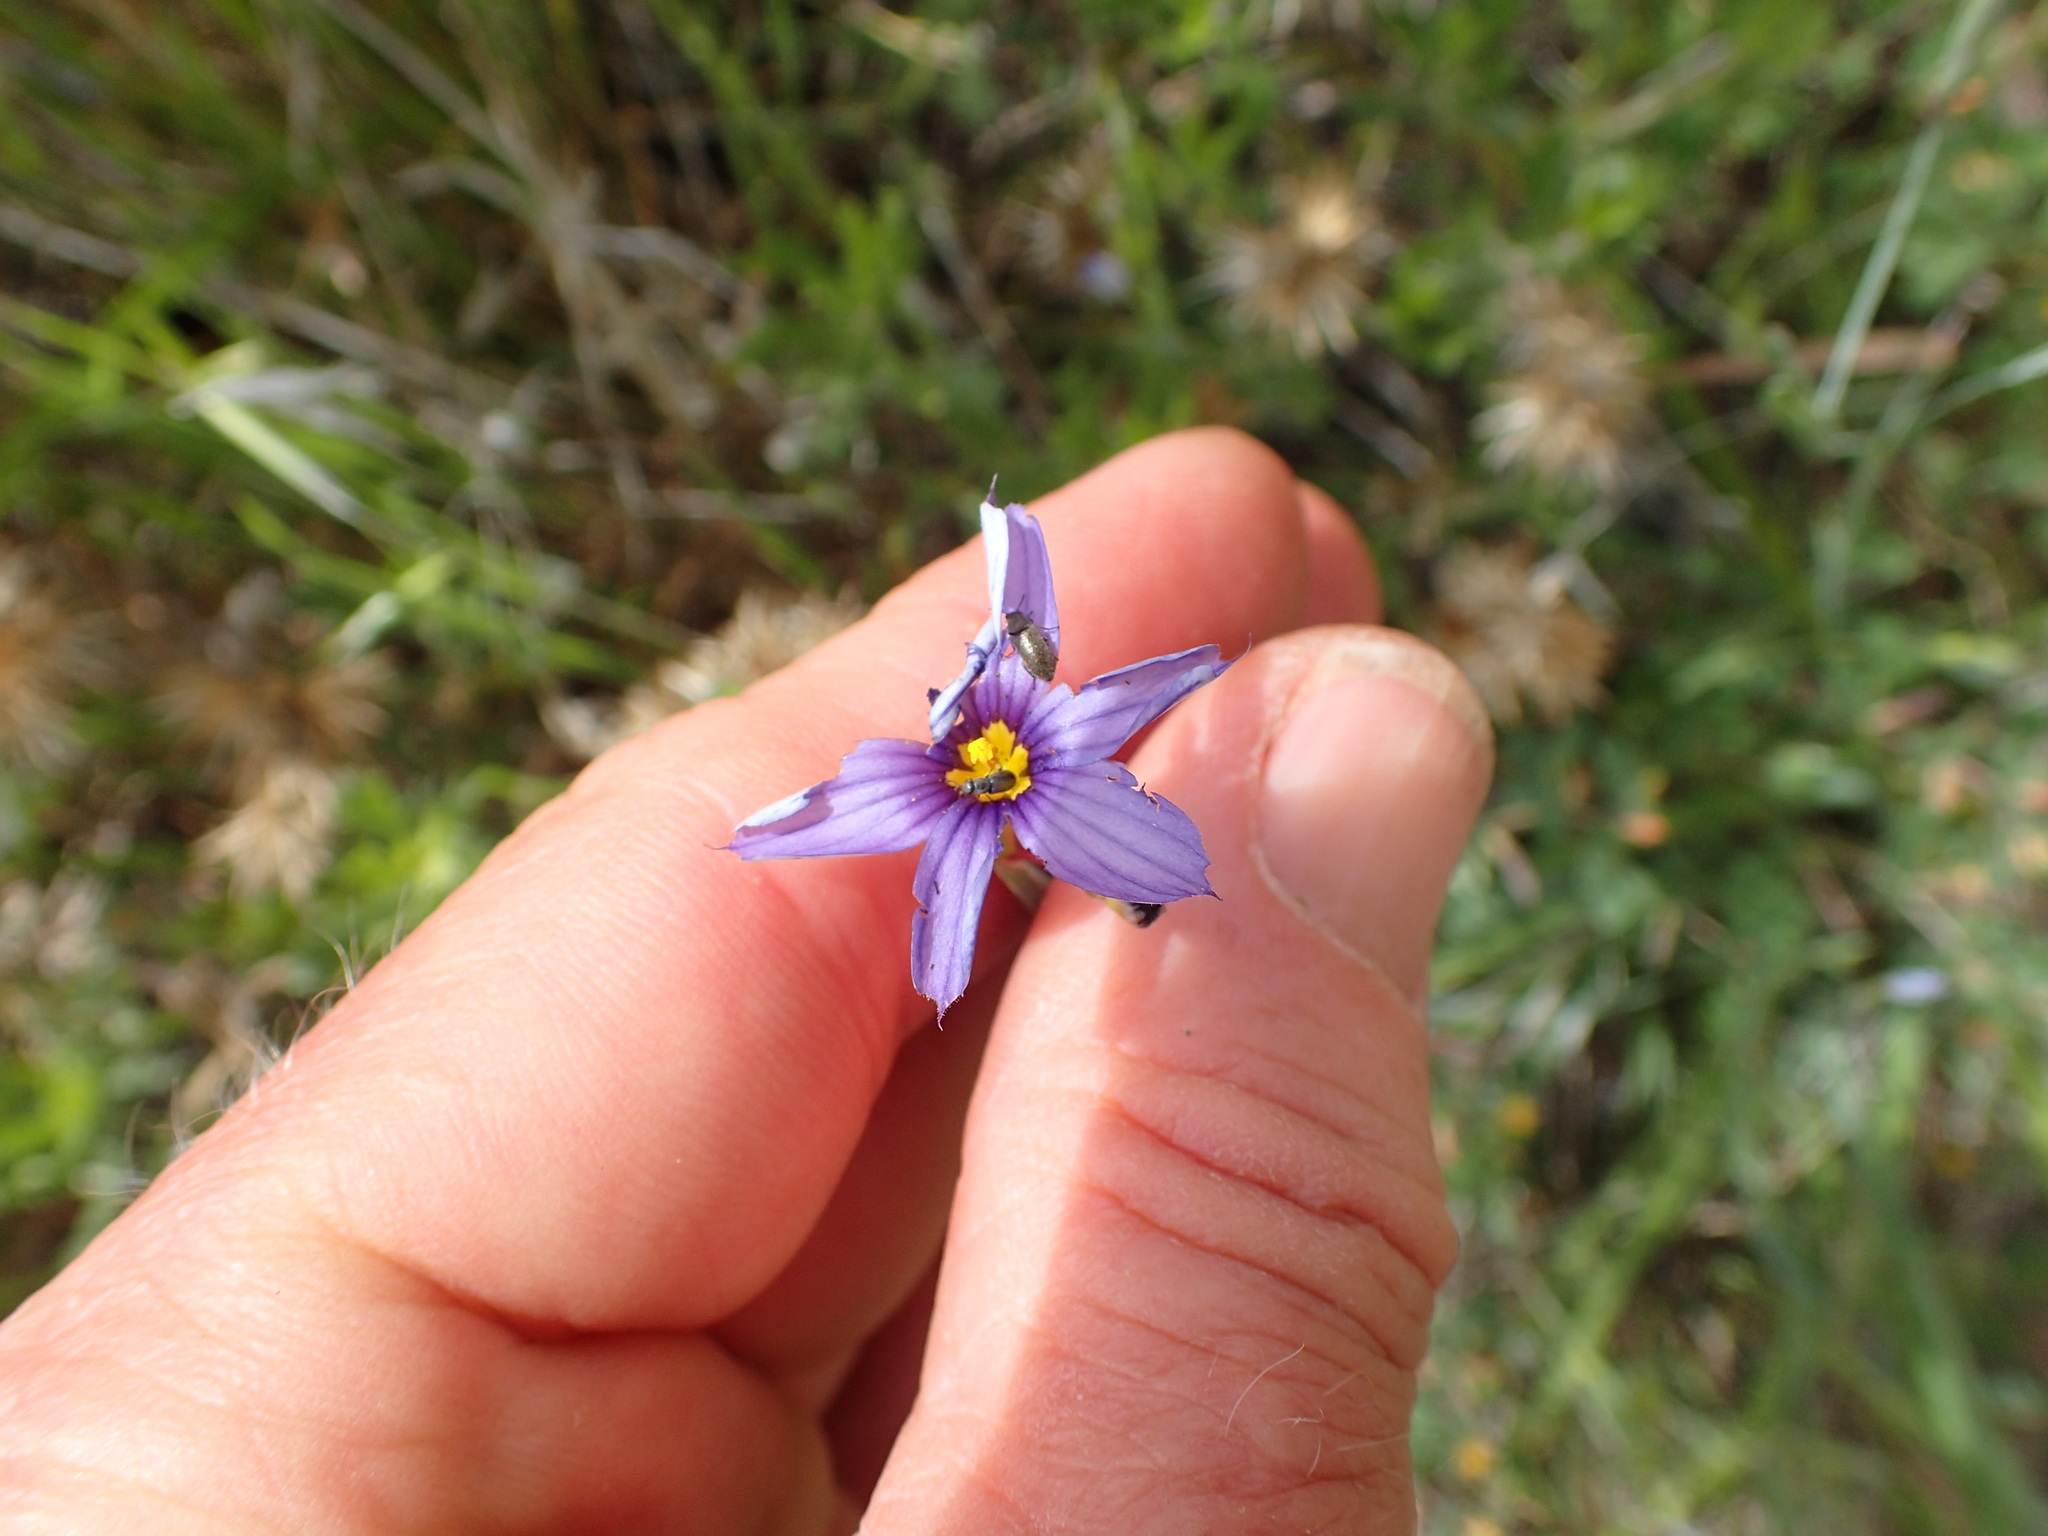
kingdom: Plantae
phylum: Tracheophyta
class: Liliopsida
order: Asparagales
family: Iridaceae
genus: Sisyrinchium
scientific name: Sisyrinchium bellum
